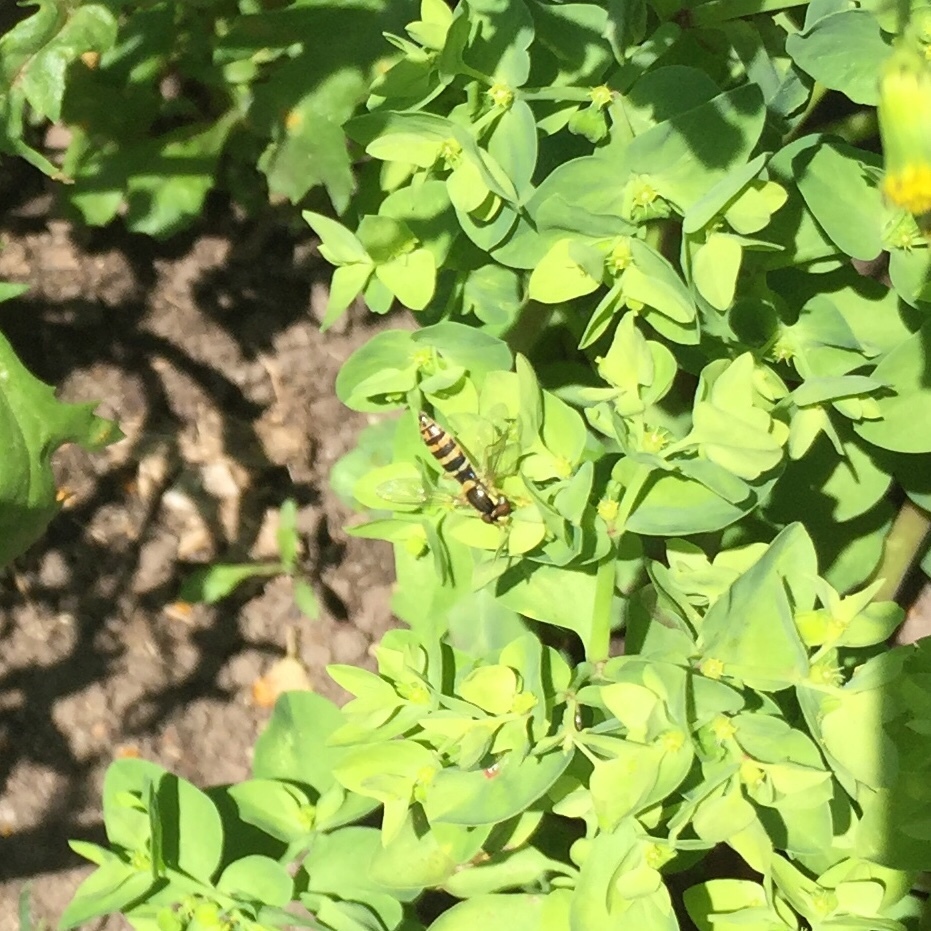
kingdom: Animalia
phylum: Arthropoda
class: Insecta
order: Diptera
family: Syrphidae
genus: Sphaerophoria
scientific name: Sphaerophoria
